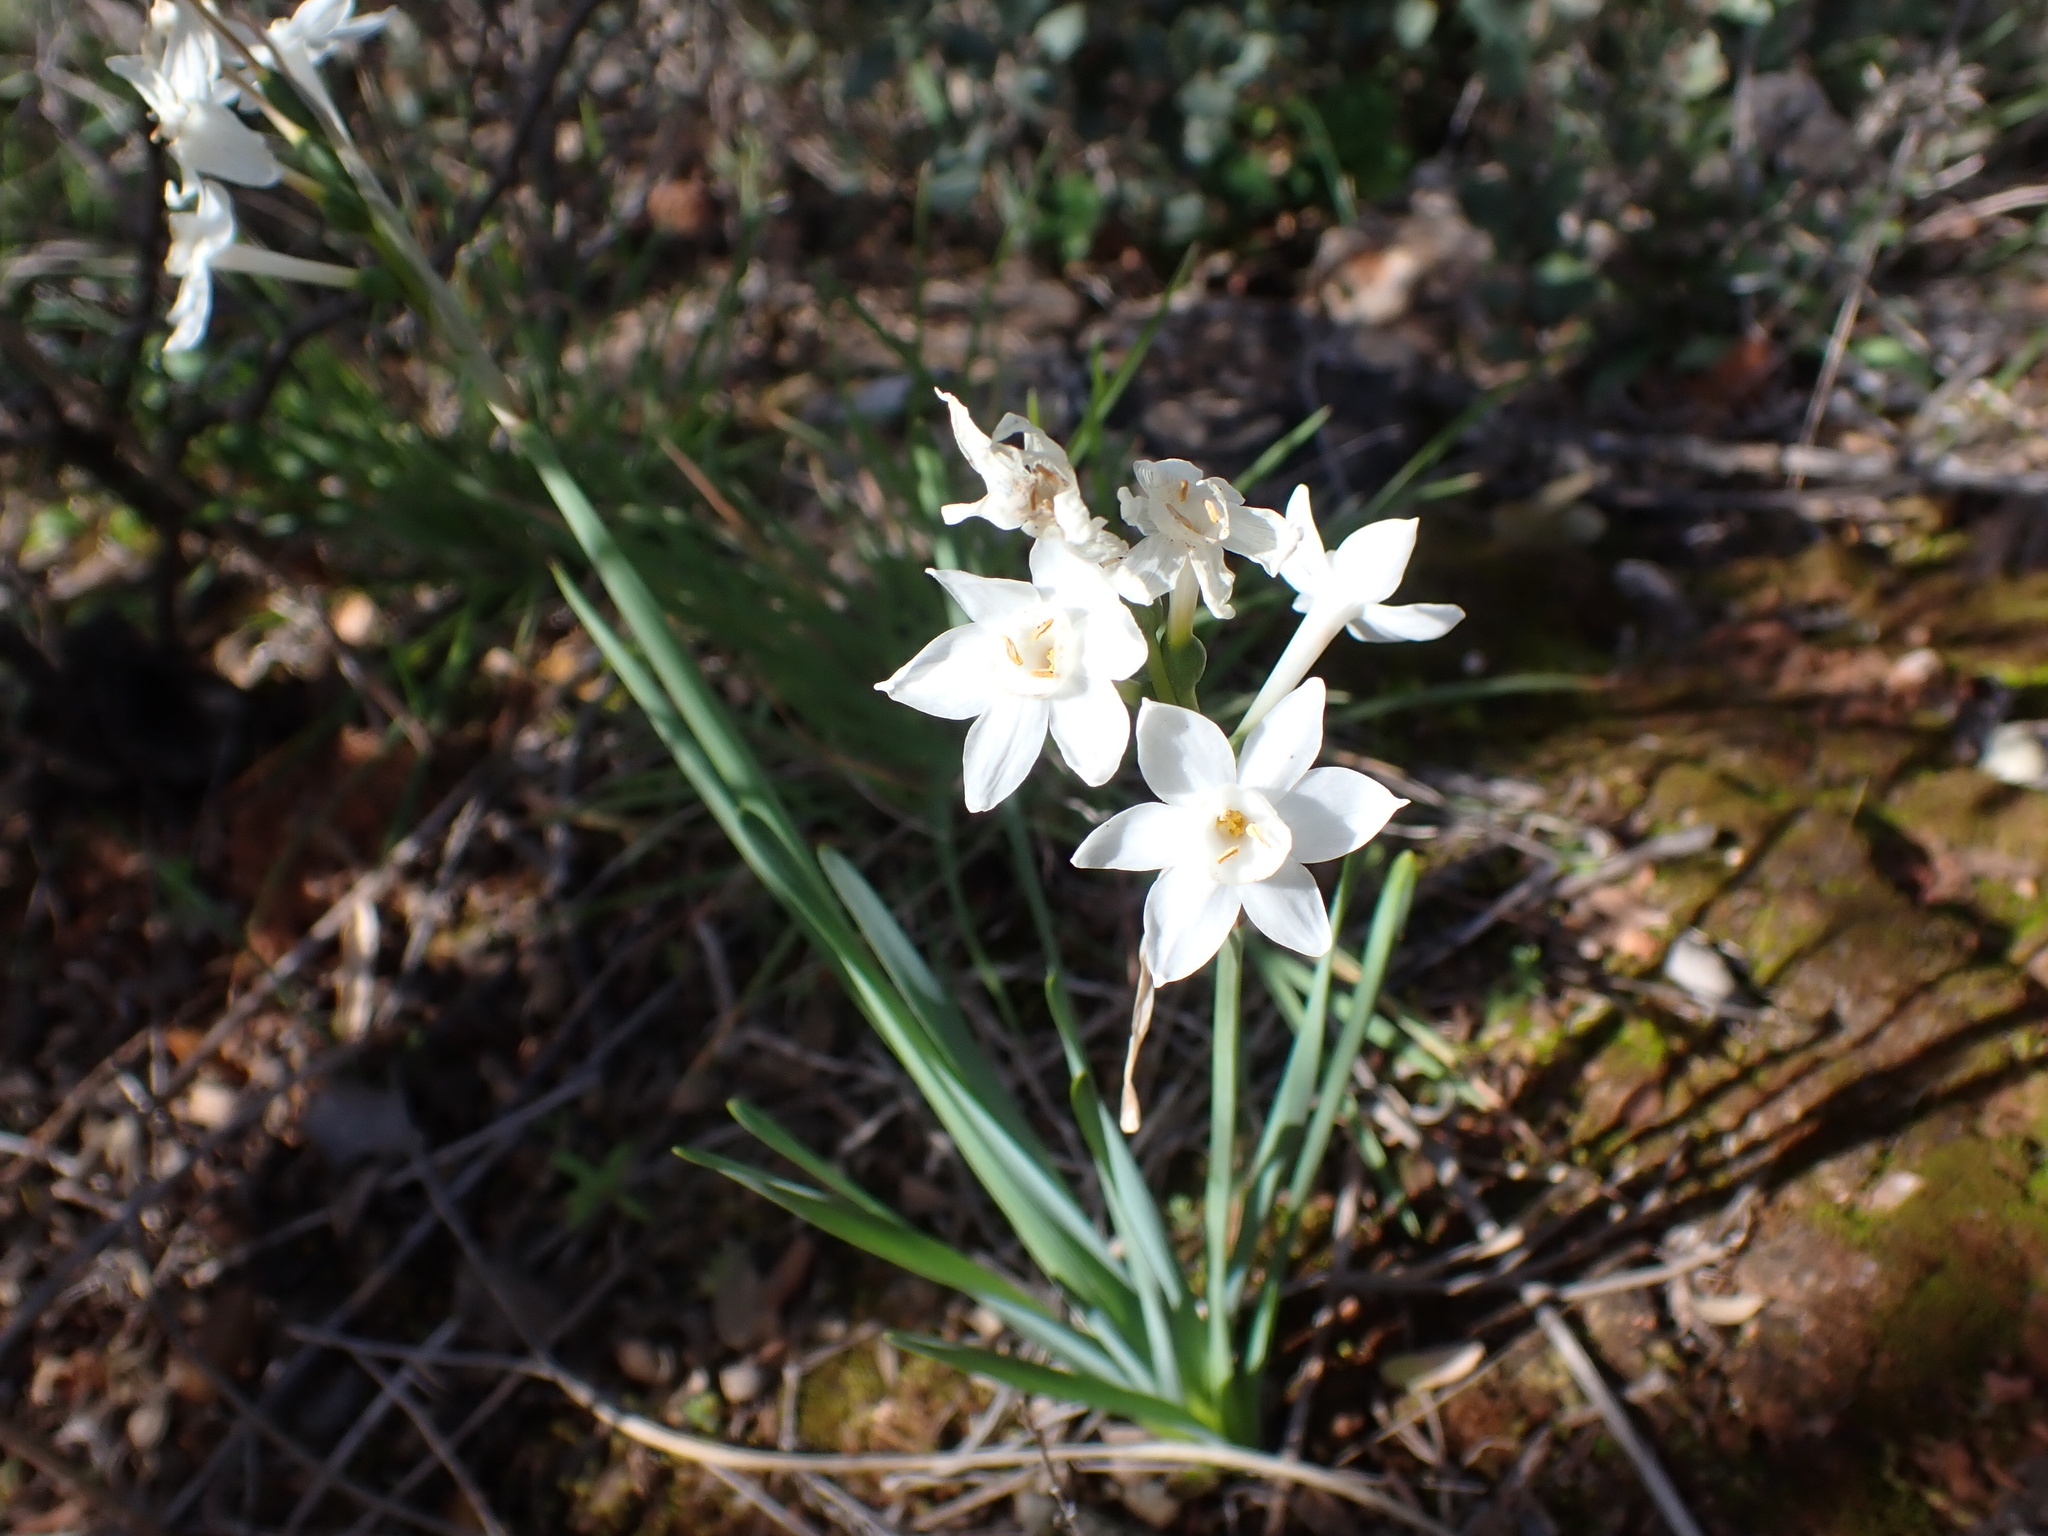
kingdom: Plantae
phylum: Tracheophyta
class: Liliopsida
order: Asparagales
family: Amaryllidaceae
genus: Narcissus
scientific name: Narcissus papyraceus
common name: Paper-white daffodil
